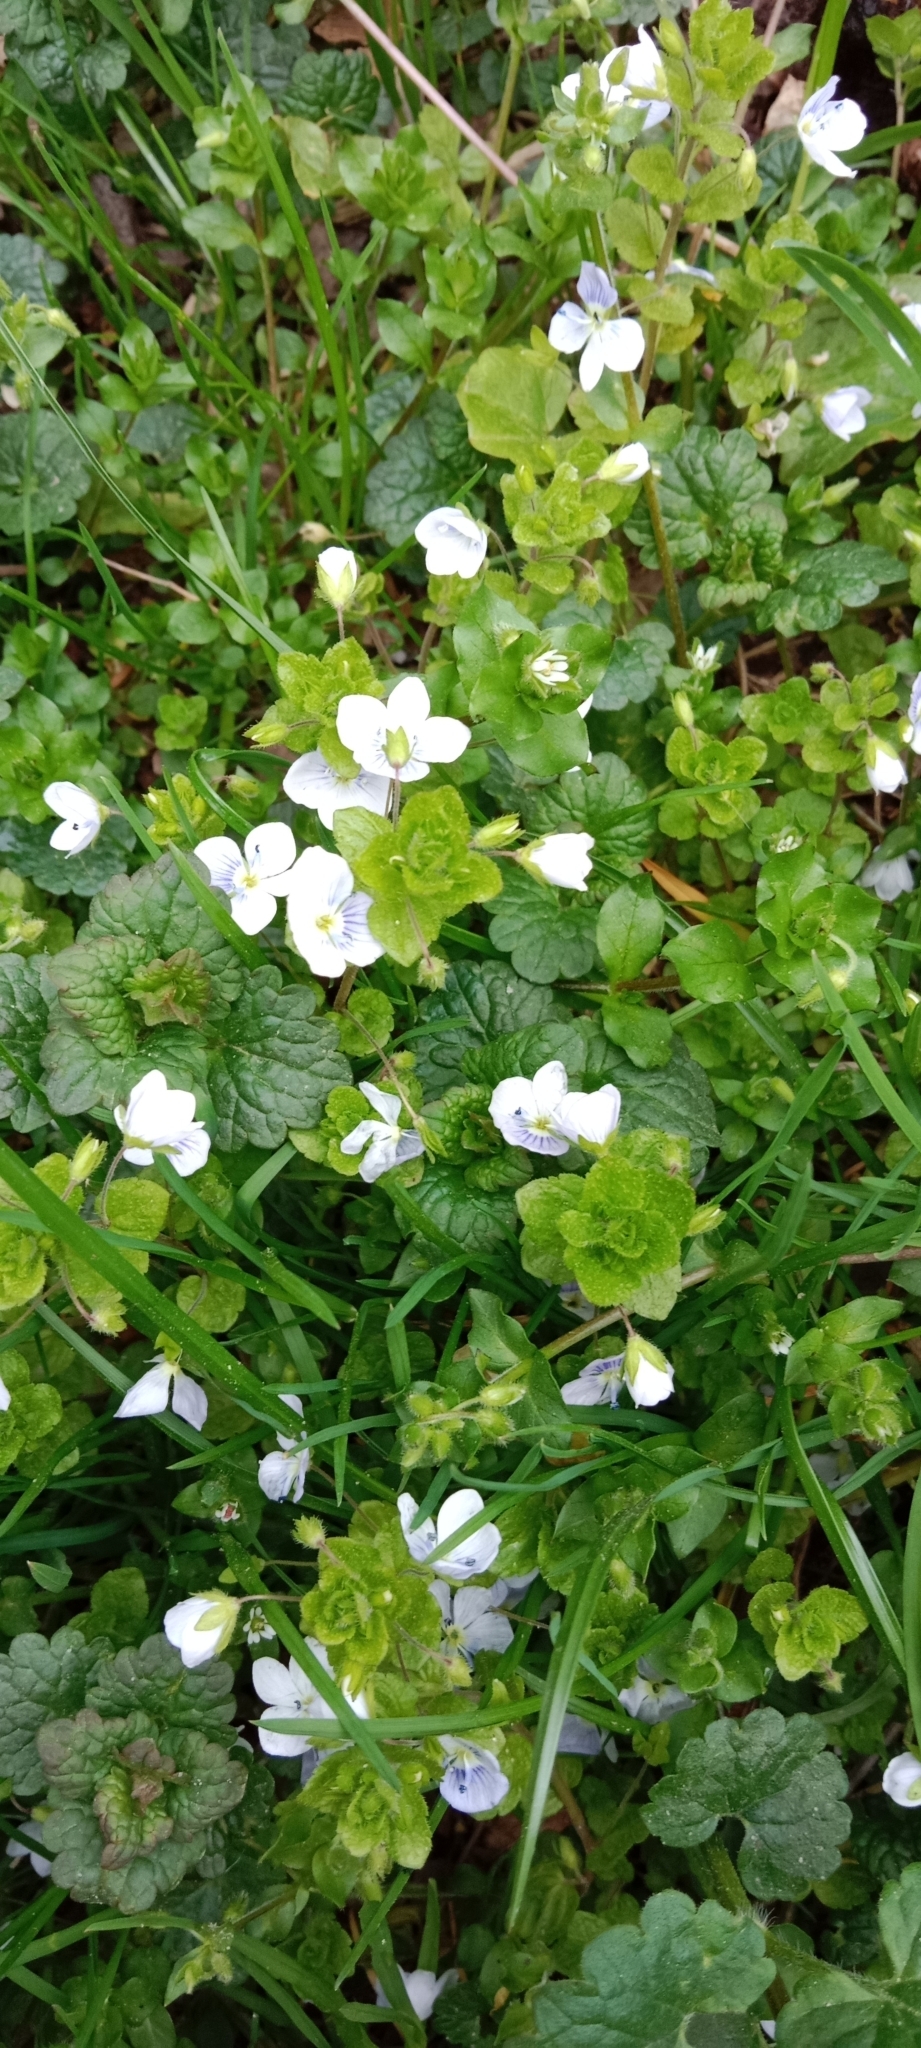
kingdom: Plantae
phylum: Tracheophyta
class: Magnoliopsida
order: Lamiales
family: Plantaginaceae
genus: Veronica
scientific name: Veronica filiformis
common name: Slender speedwell
